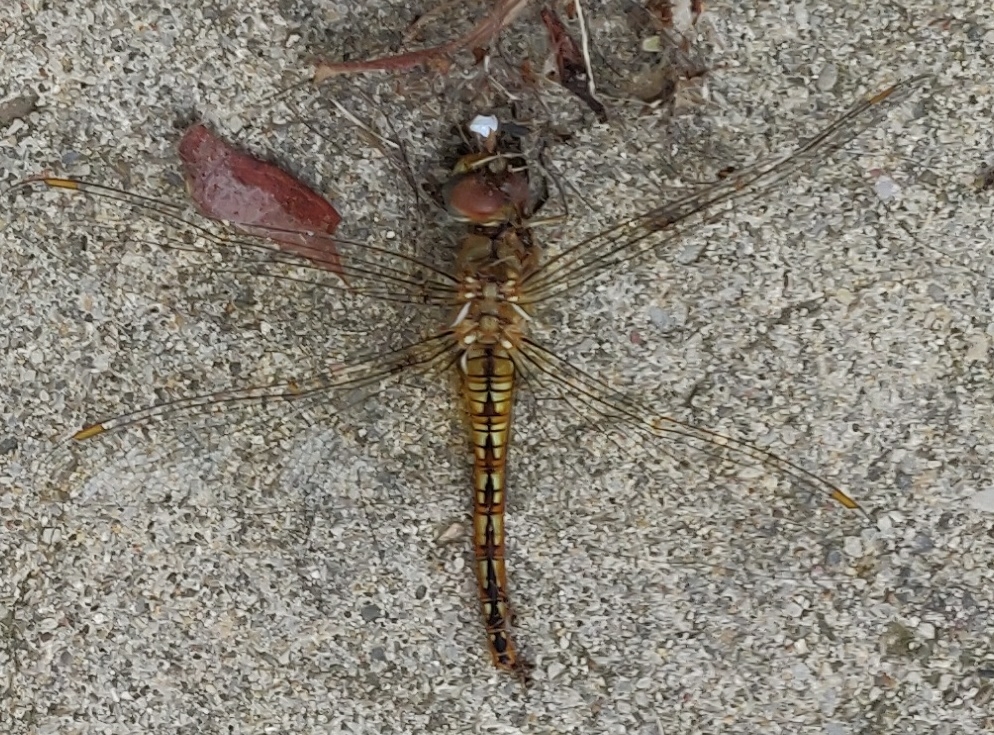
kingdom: Animalia
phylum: Arthropoda
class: Insecta
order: Odonata
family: Libellulidae
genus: Pantala
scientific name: Pantala flavescens
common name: Wandering glider
